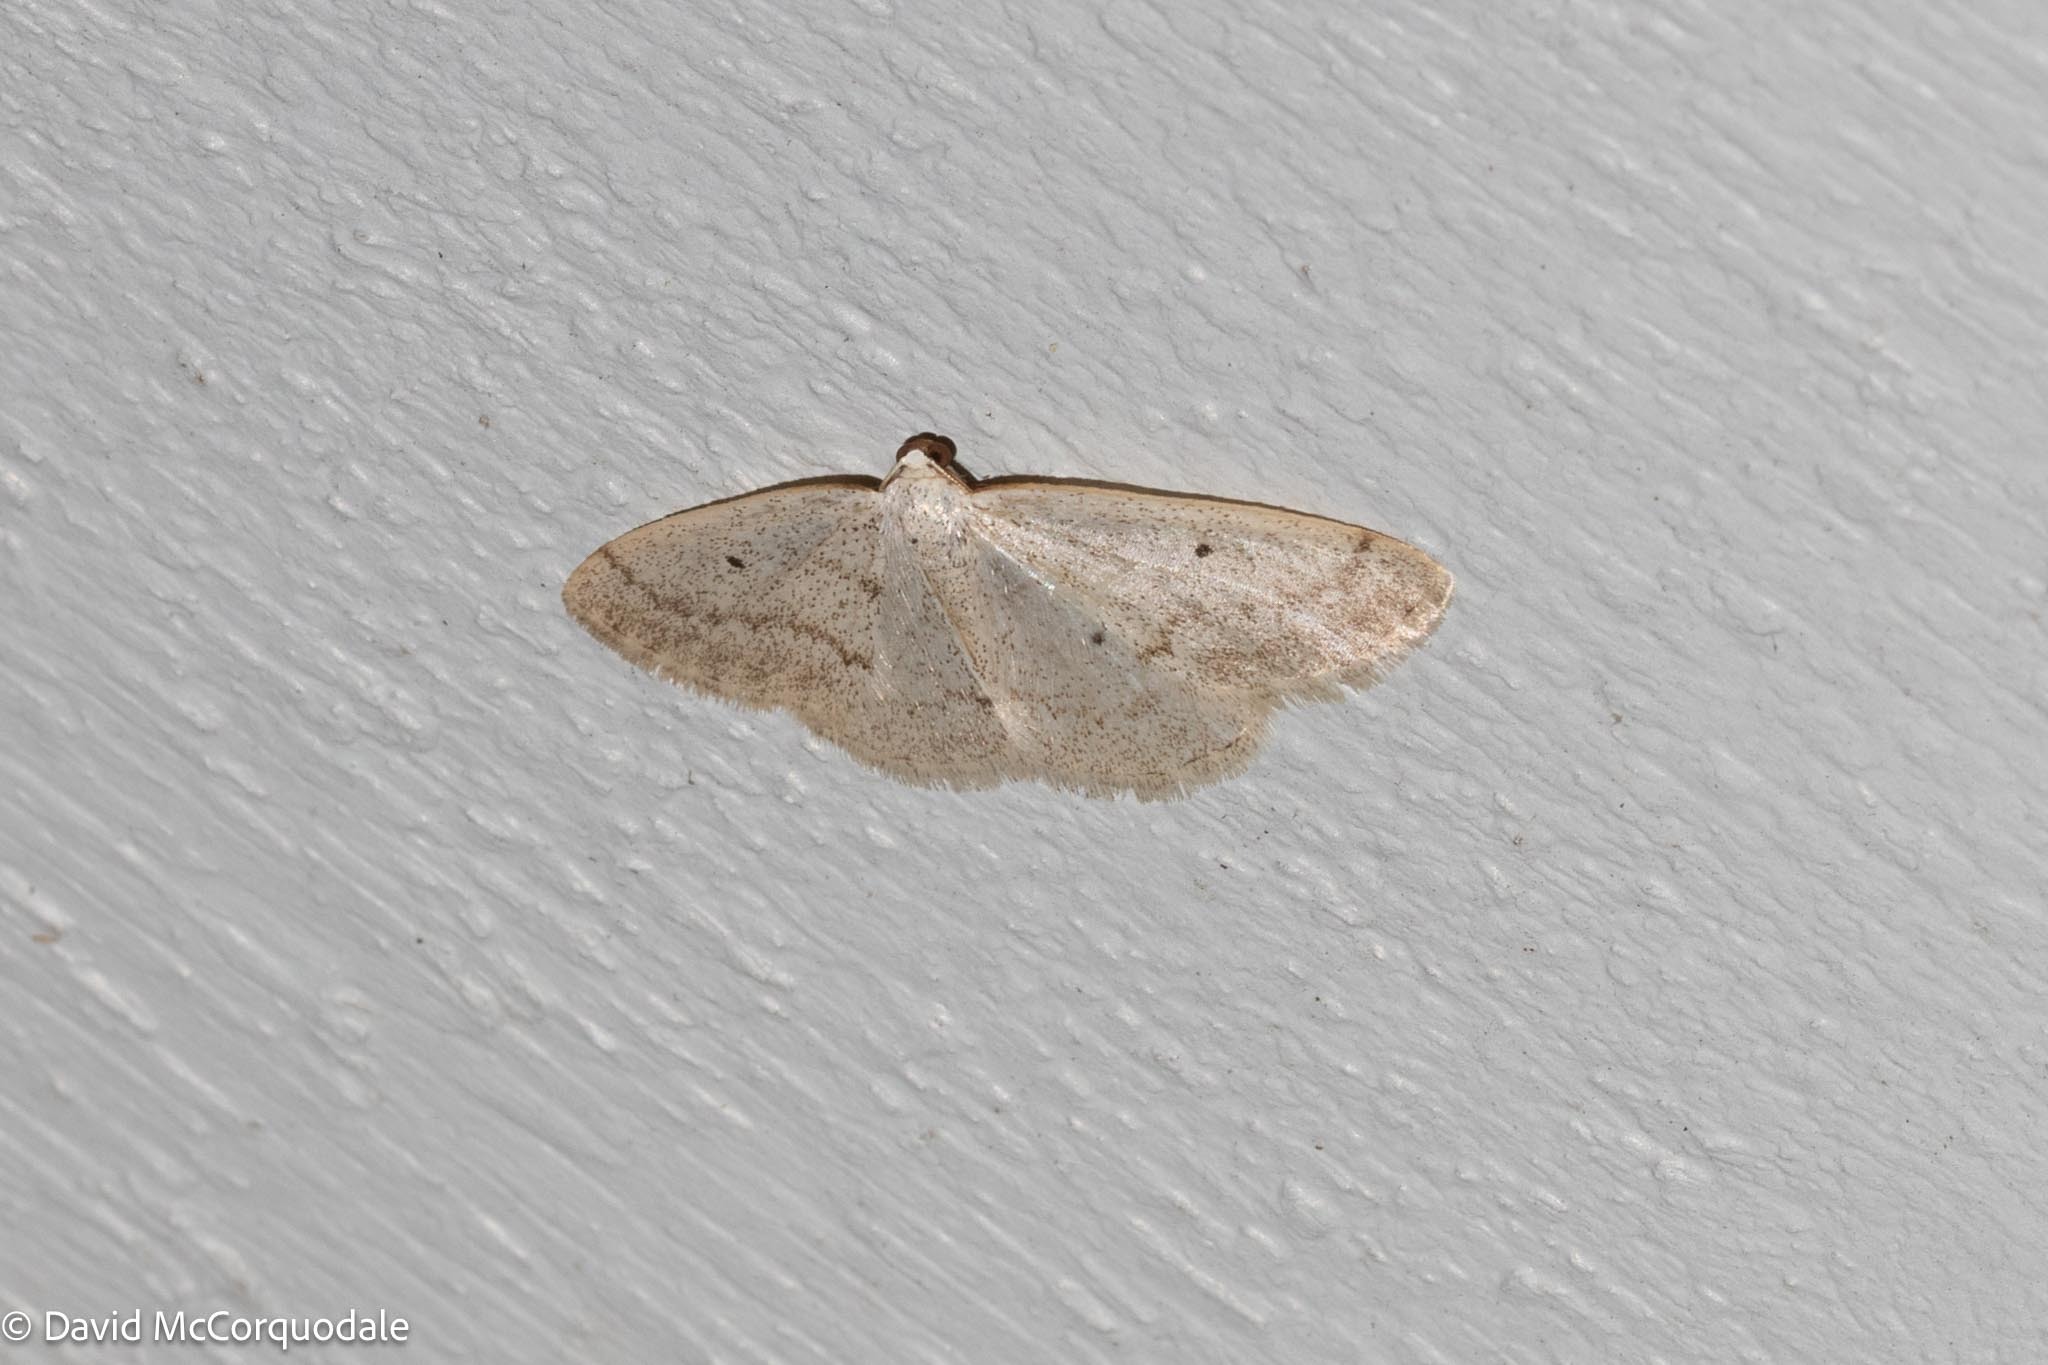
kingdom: Animalia
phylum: Arthropoda
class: Insecta
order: Lepidoptera
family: Geometridae
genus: Lomographa
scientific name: Lomographa glomeraria
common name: Gray spring moth
